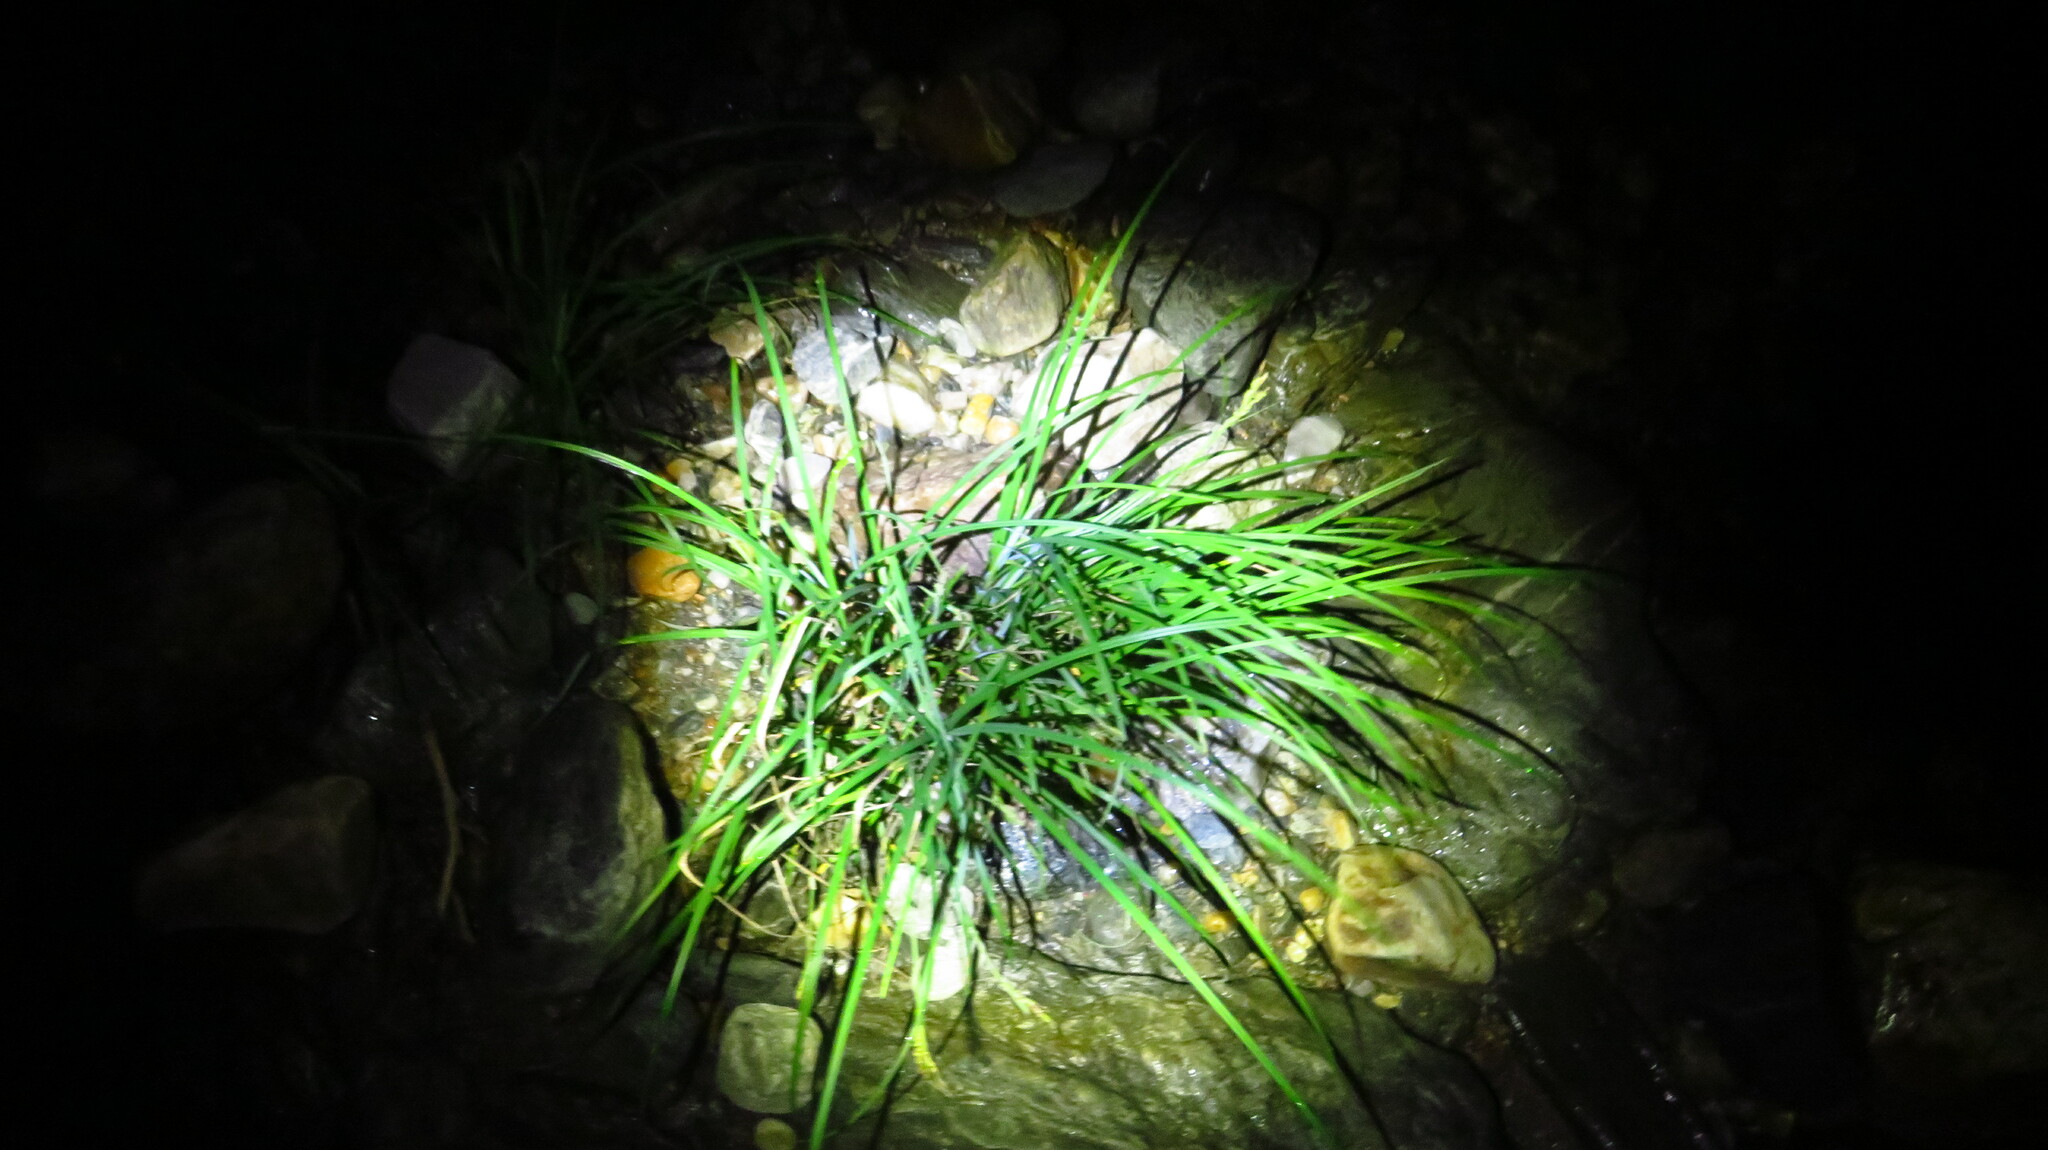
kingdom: Plantae
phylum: Tracheophyta
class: Liliopsida
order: Poales
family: Cyperaceae
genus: Carex
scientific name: Carex torta
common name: Twisted sedge
